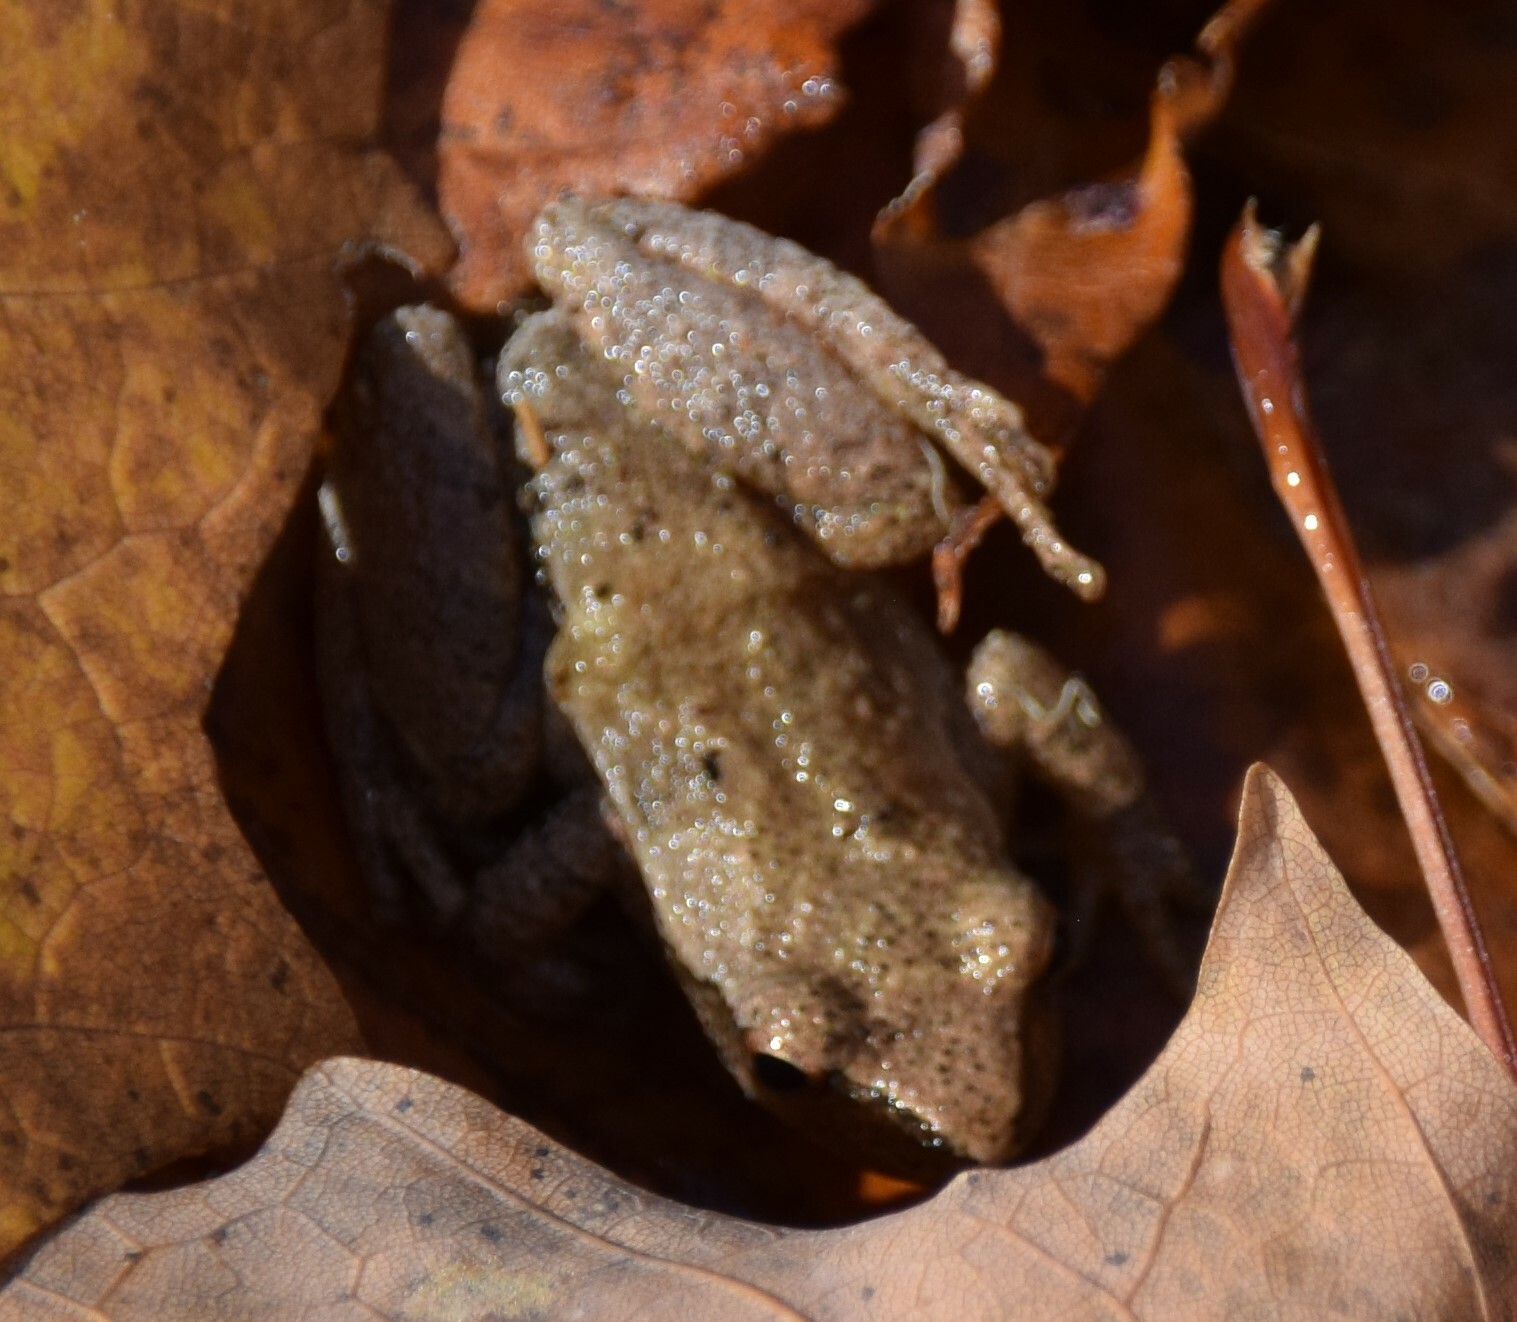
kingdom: Animalia
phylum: Chordata
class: Amphibia
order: Anura
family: Hylidae
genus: Pseudacris
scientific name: Pseudacris crucifer
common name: Spring peeper
